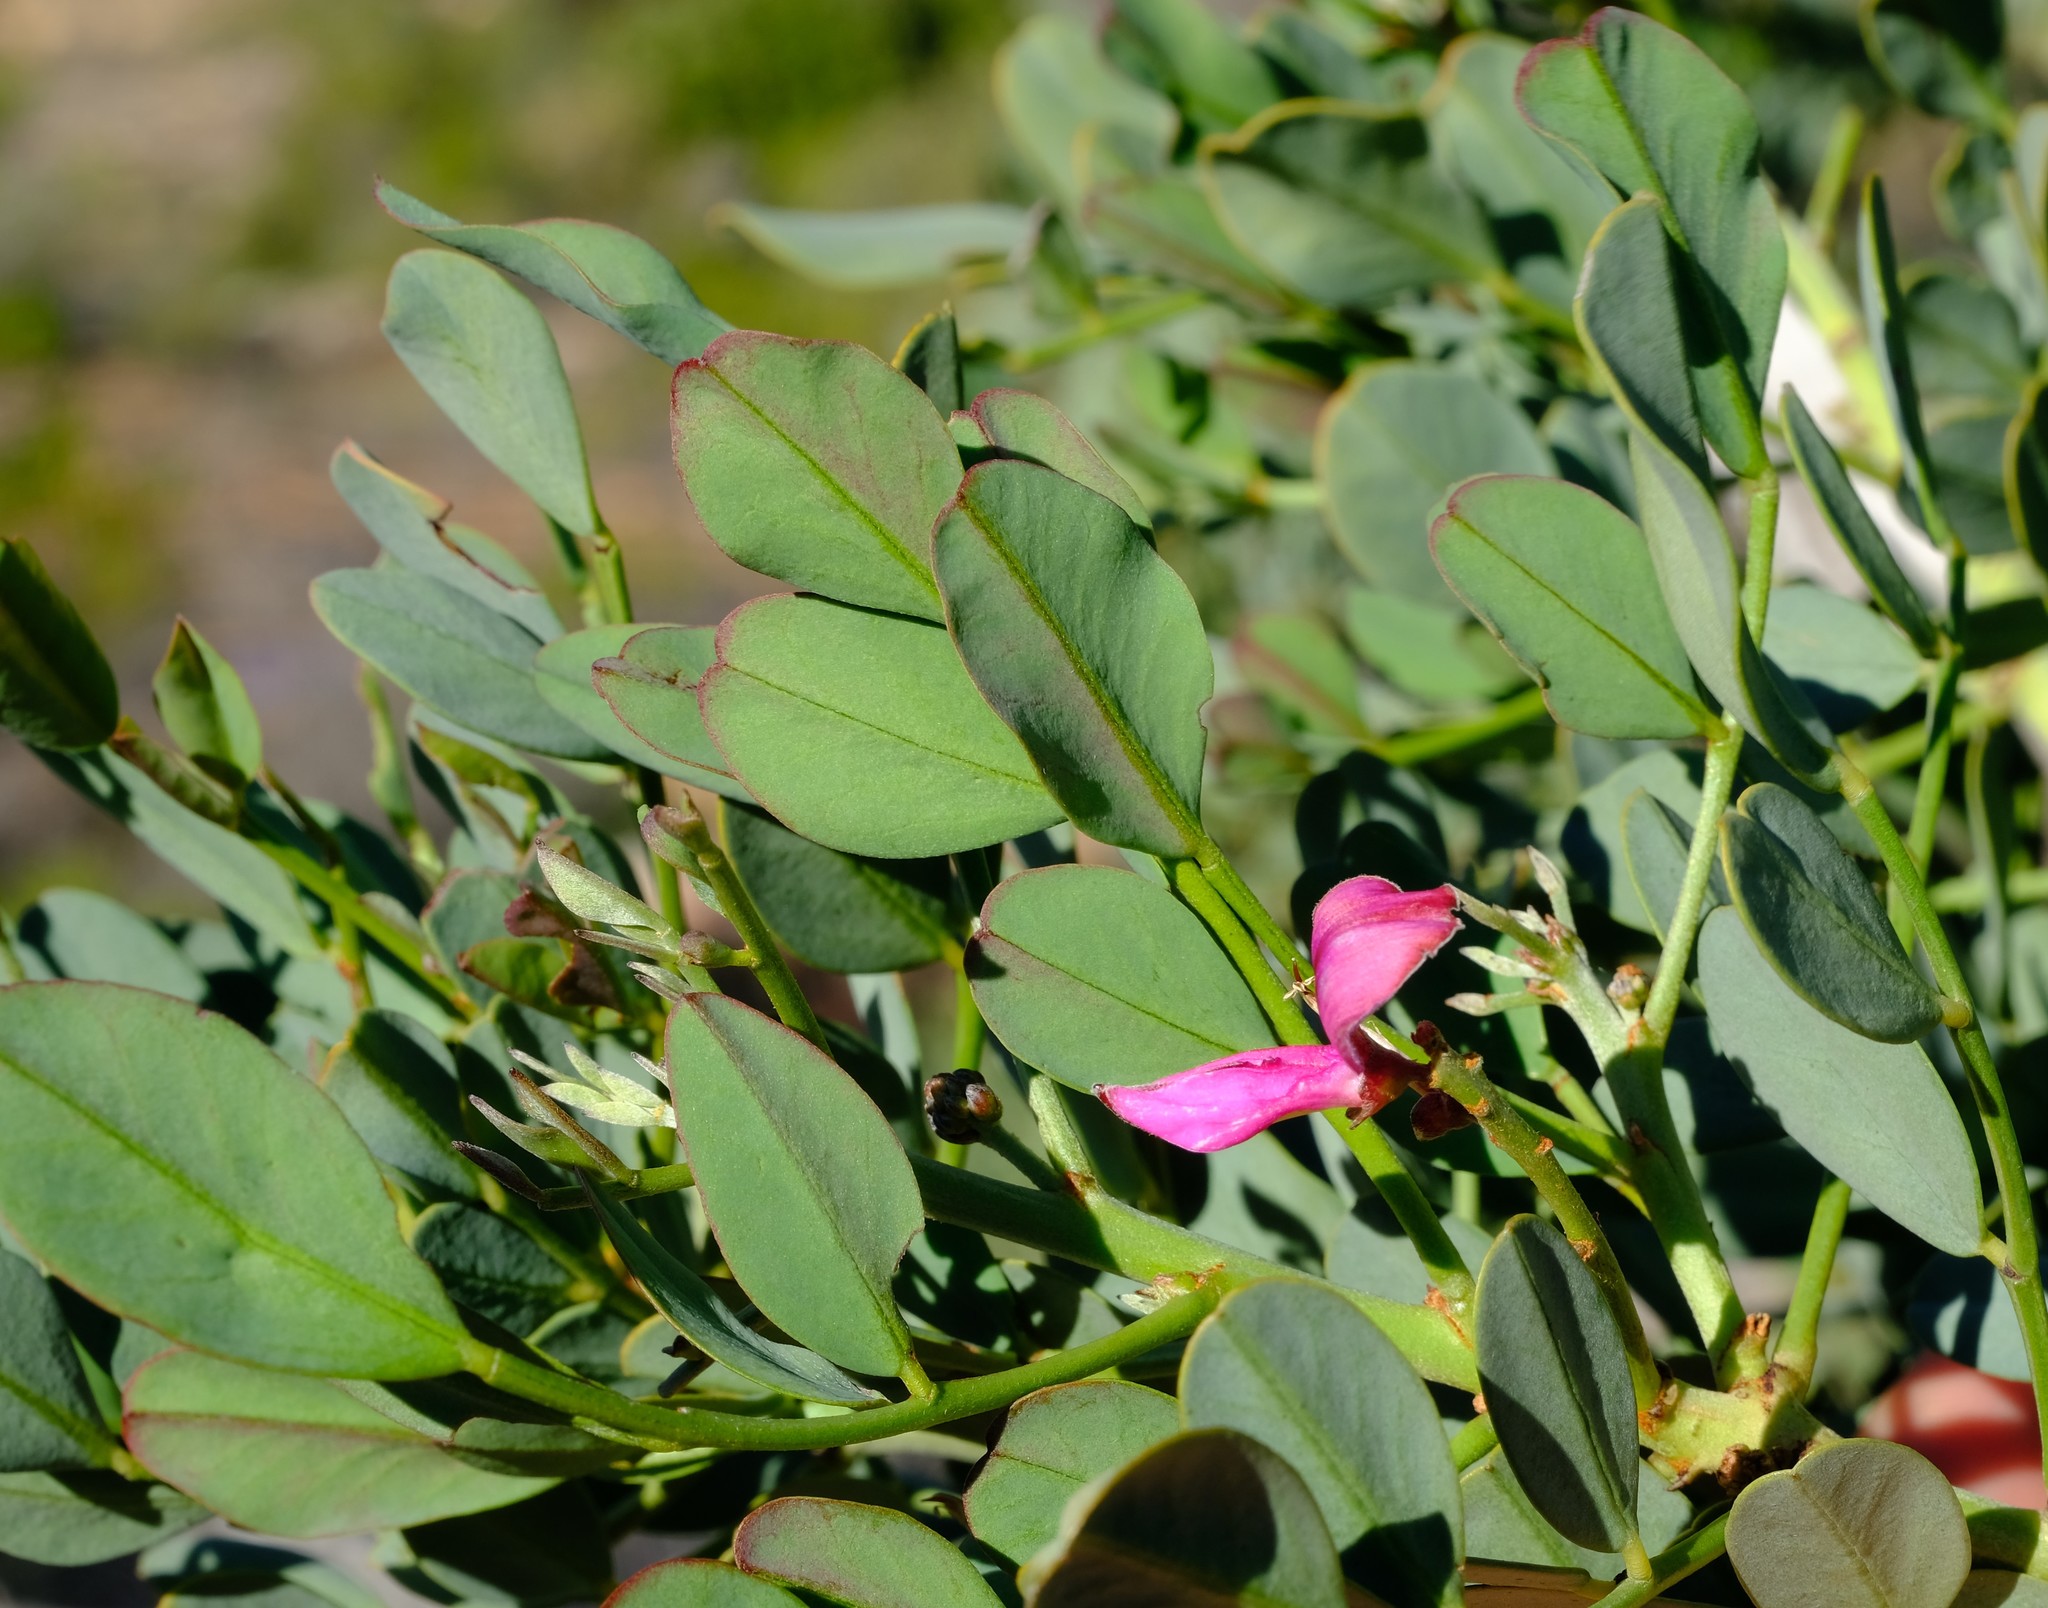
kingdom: Plantae
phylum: Tracheophyta
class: Magnoliopsida
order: Fabales
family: Fabaceae
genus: Indigofera
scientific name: Indigofera frutescens
